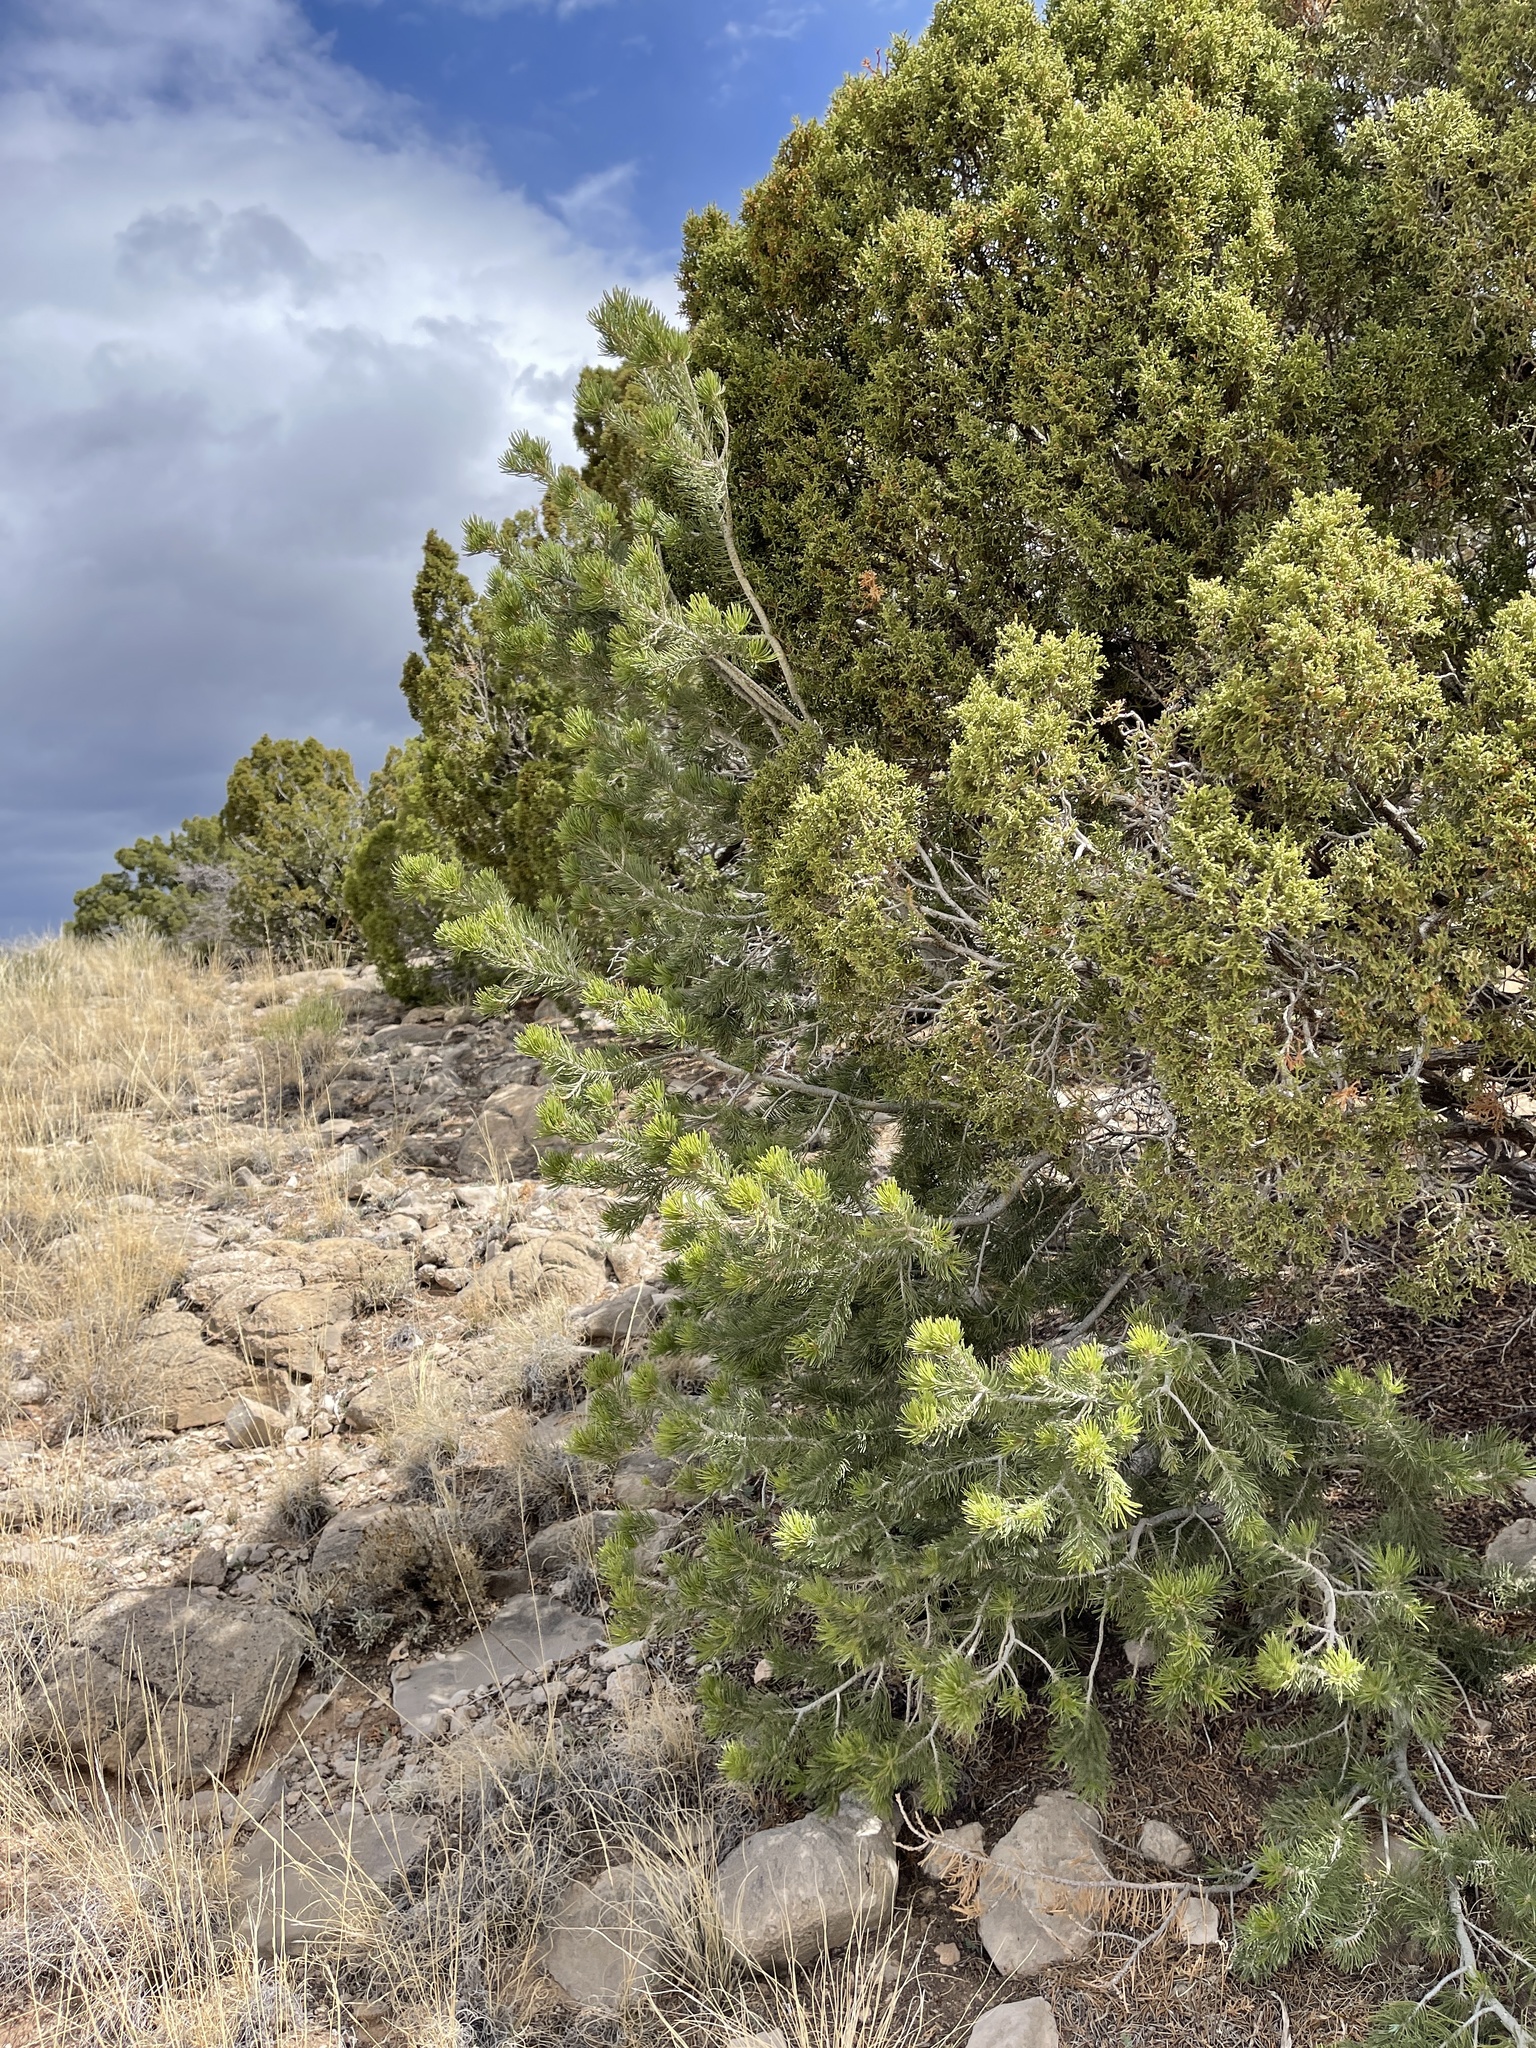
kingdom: Plantae
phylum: Tracheophyta
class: Pinopsida
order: Pinales
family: Pinaceae
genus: Pinus
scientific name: Pinus edulis
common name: Colorado pinyon
